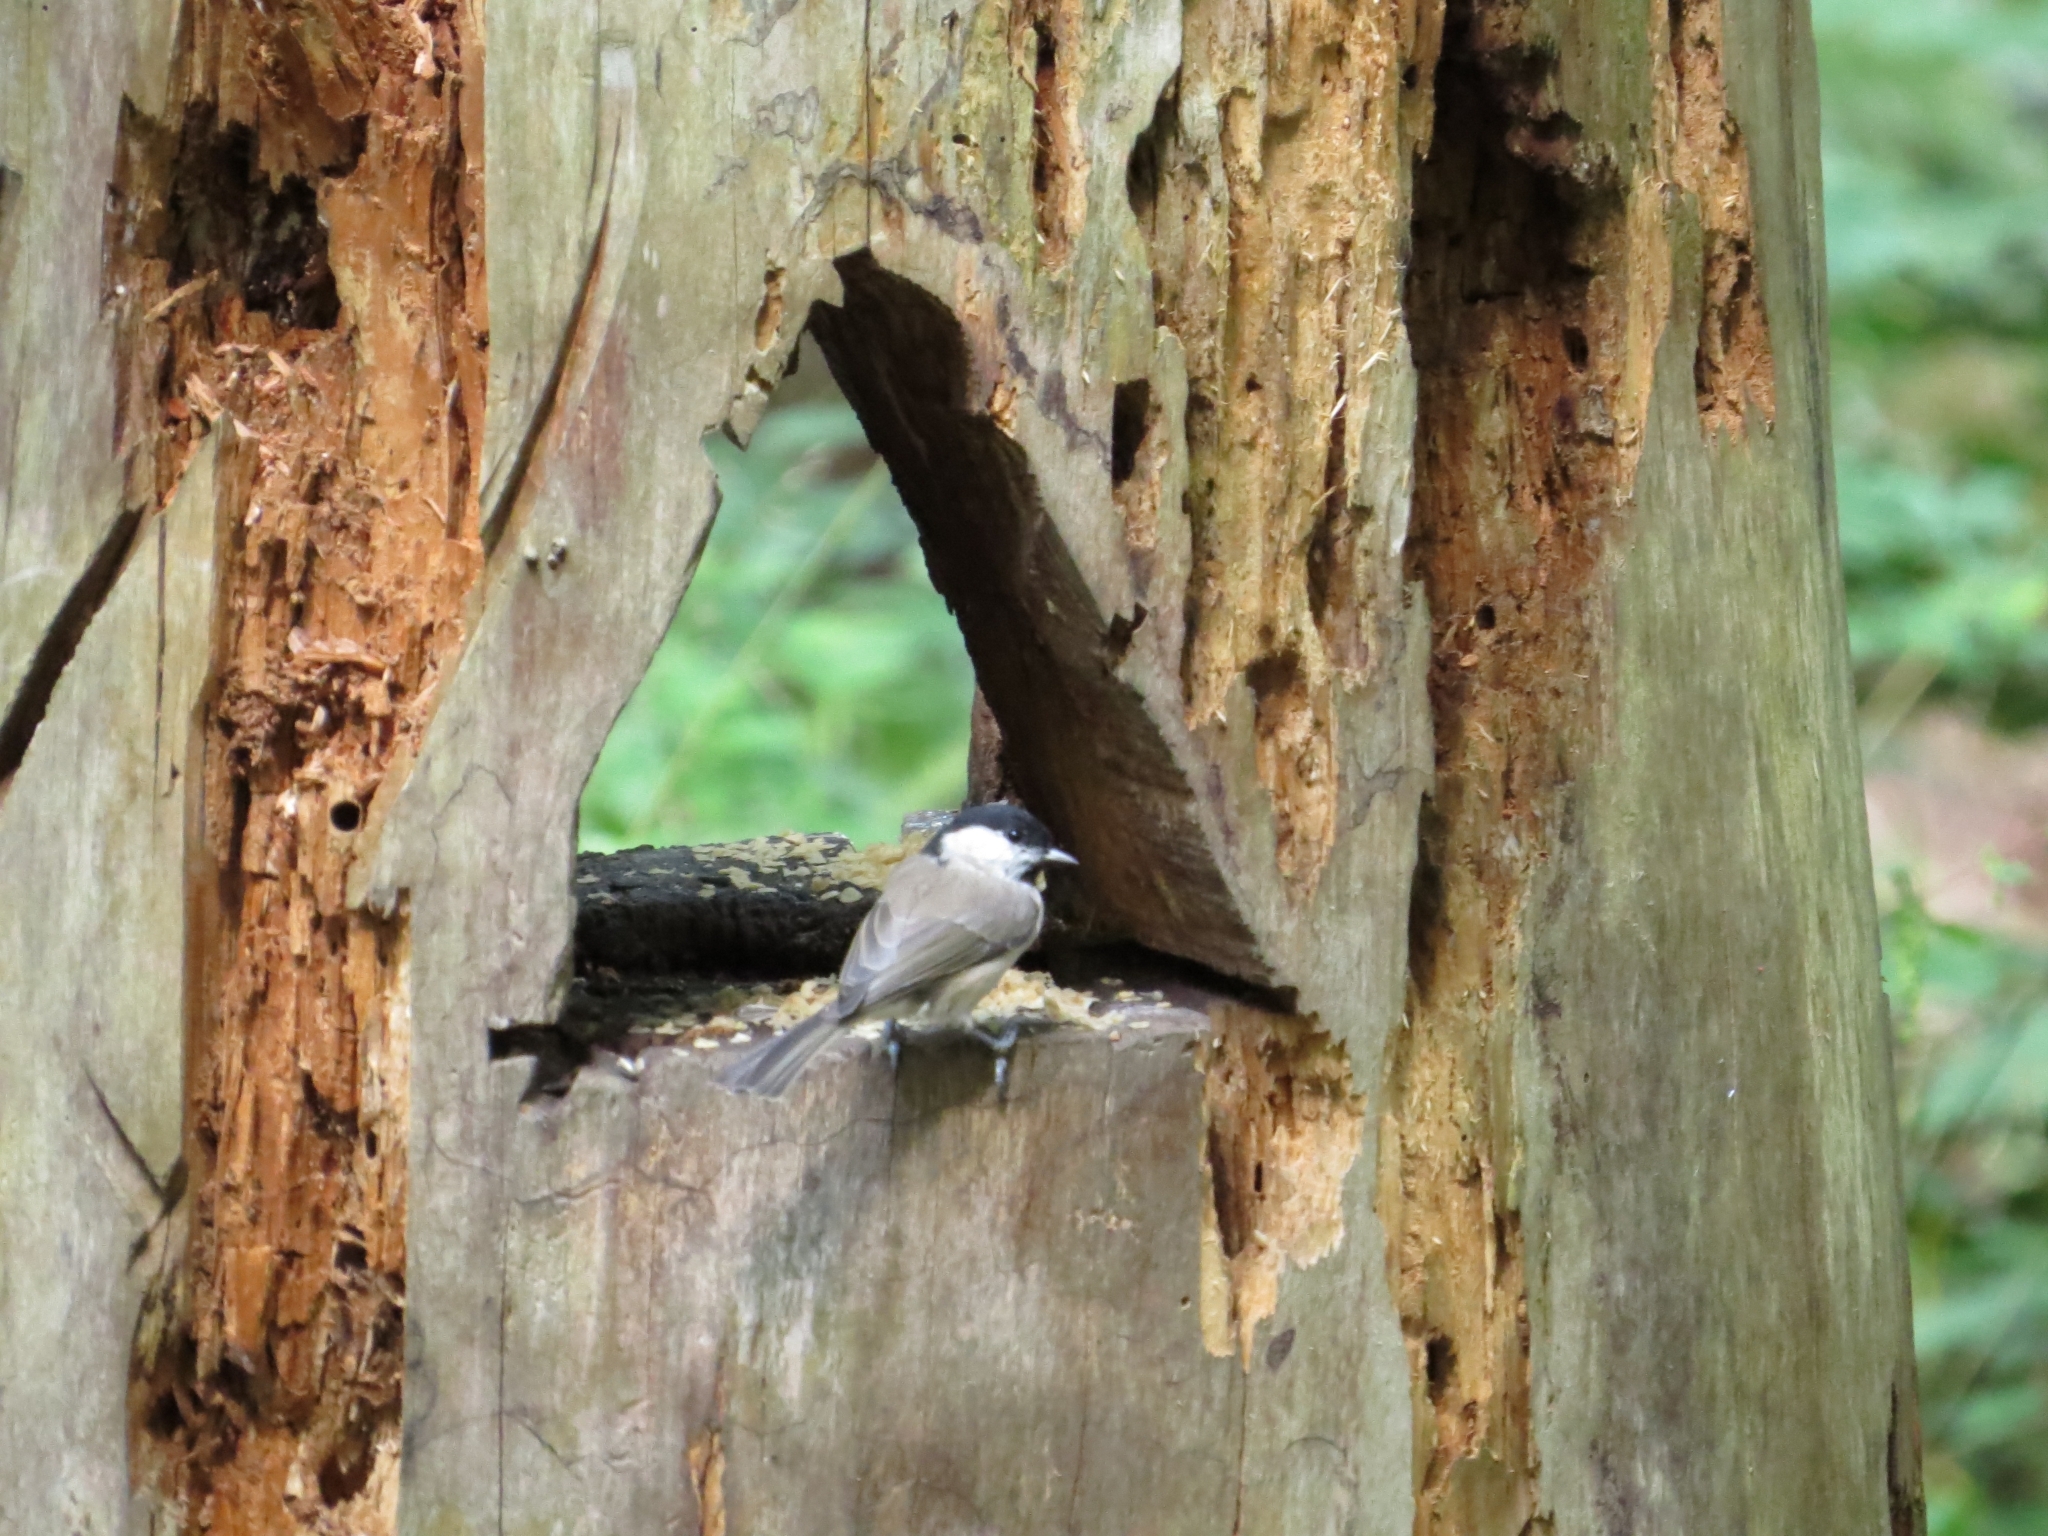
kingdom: Animalia
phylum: Chordata
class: Aves
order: Passeriformes
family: Paridae
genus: Poecile
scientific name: Poecile palustris
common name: Marsh tit
